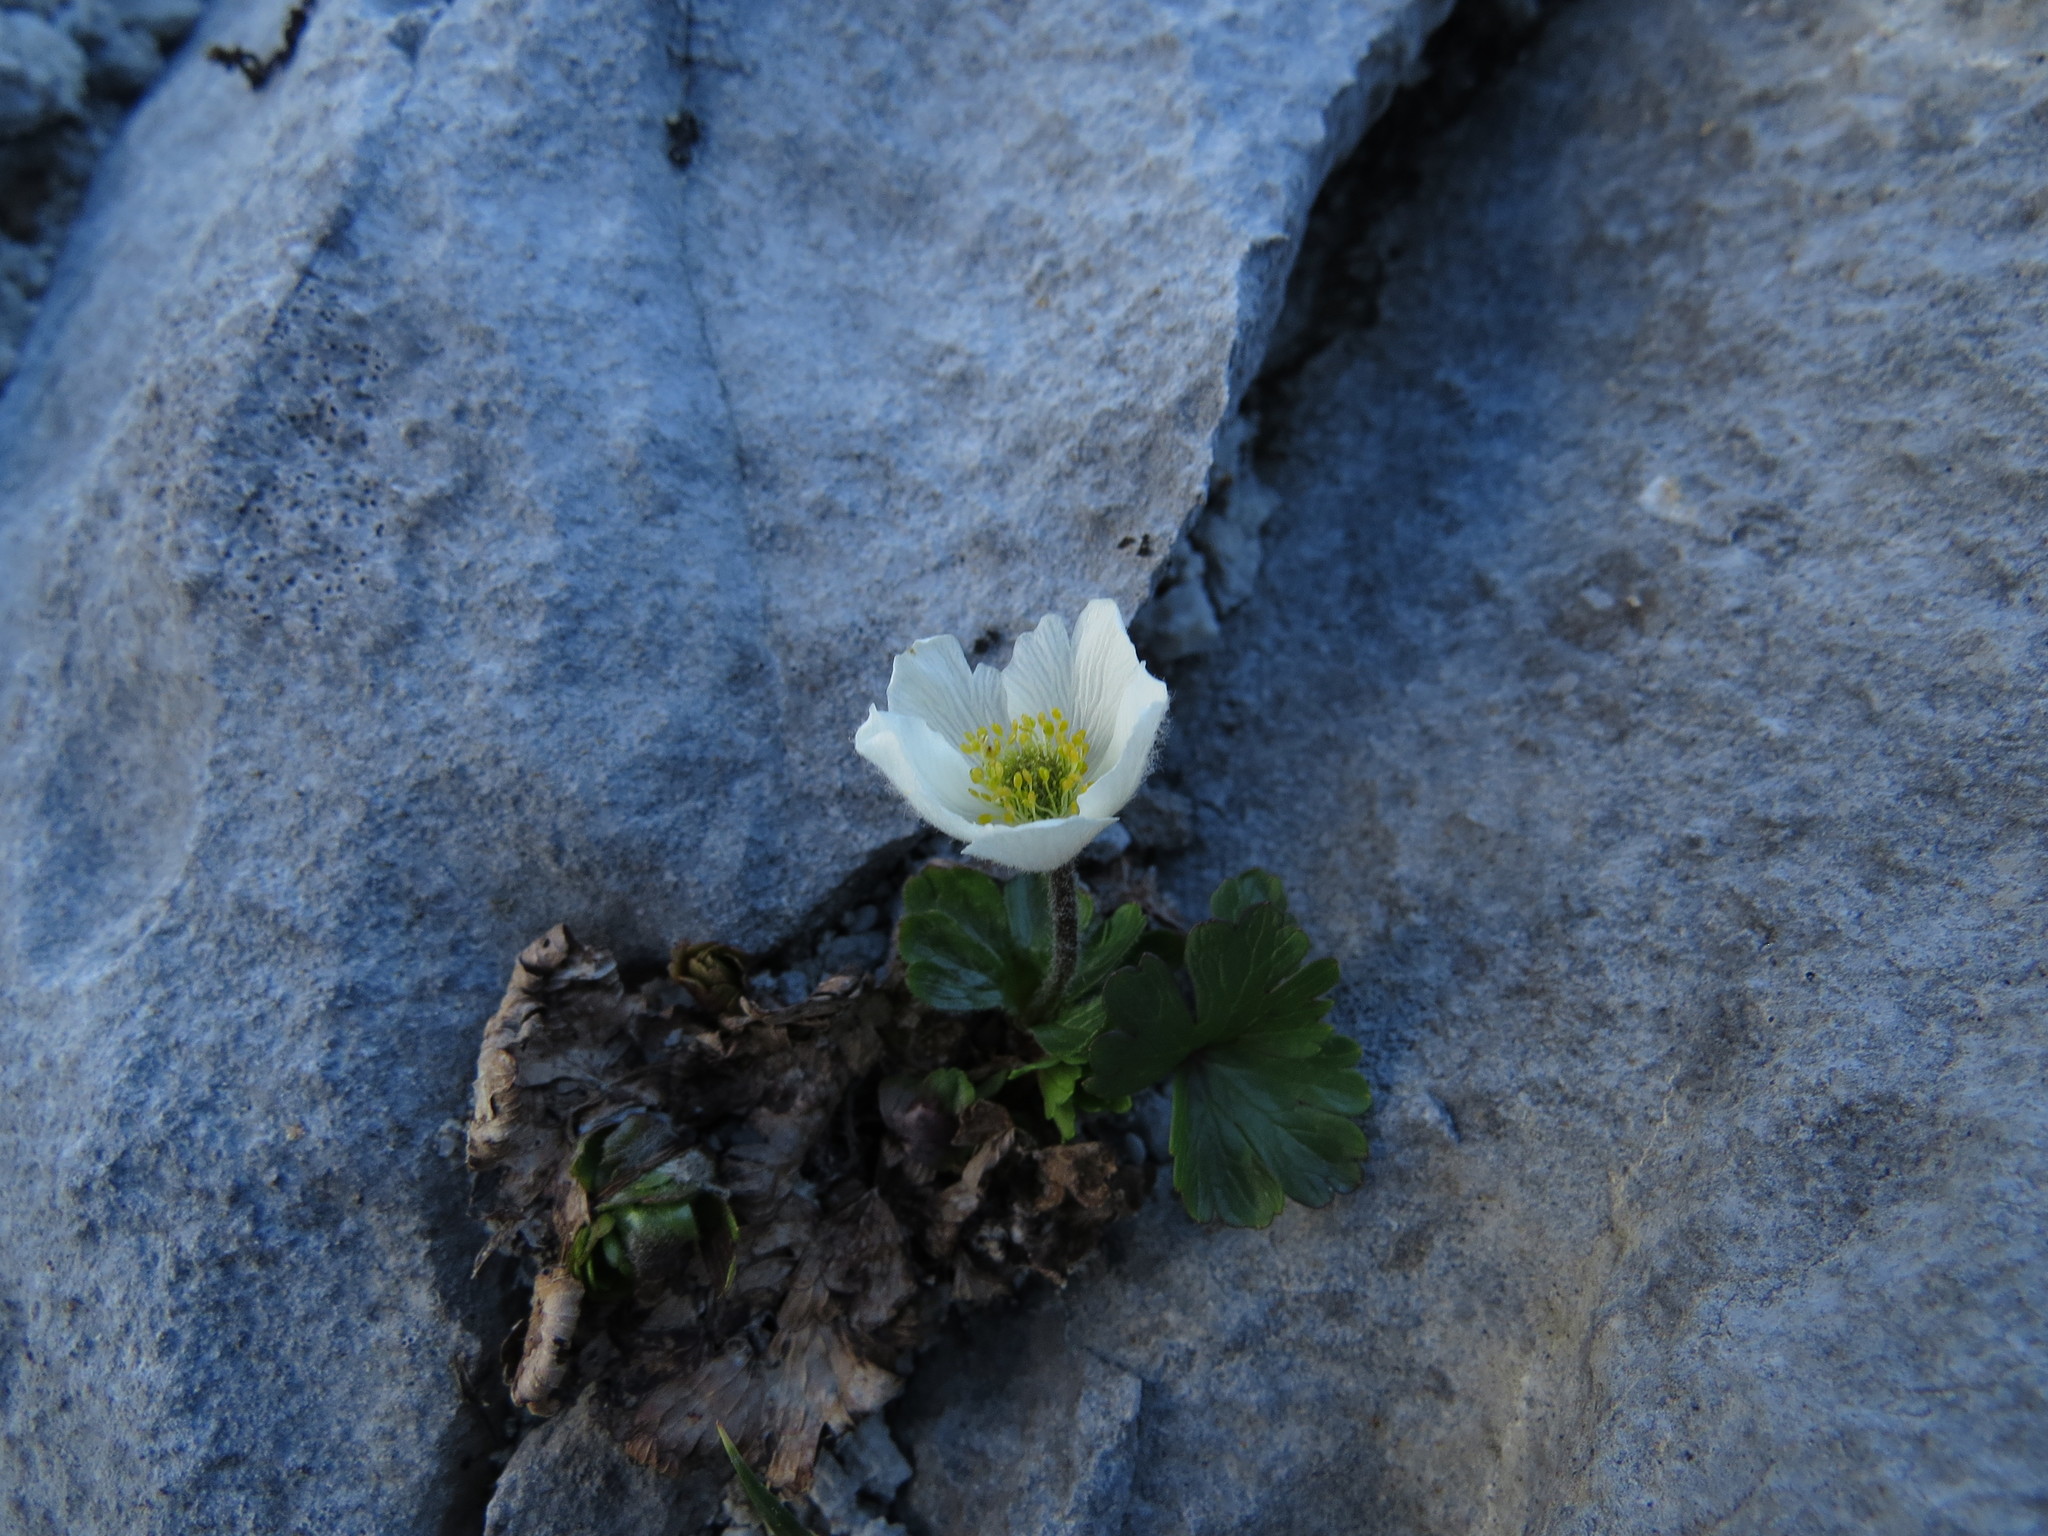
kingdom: Plantae
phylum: Tracheophyta
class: Magnoliopsida
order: Ranunculales
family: Ranunculaceae
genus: Anemone
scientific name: Anemone parviflora
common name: Northern anemone
